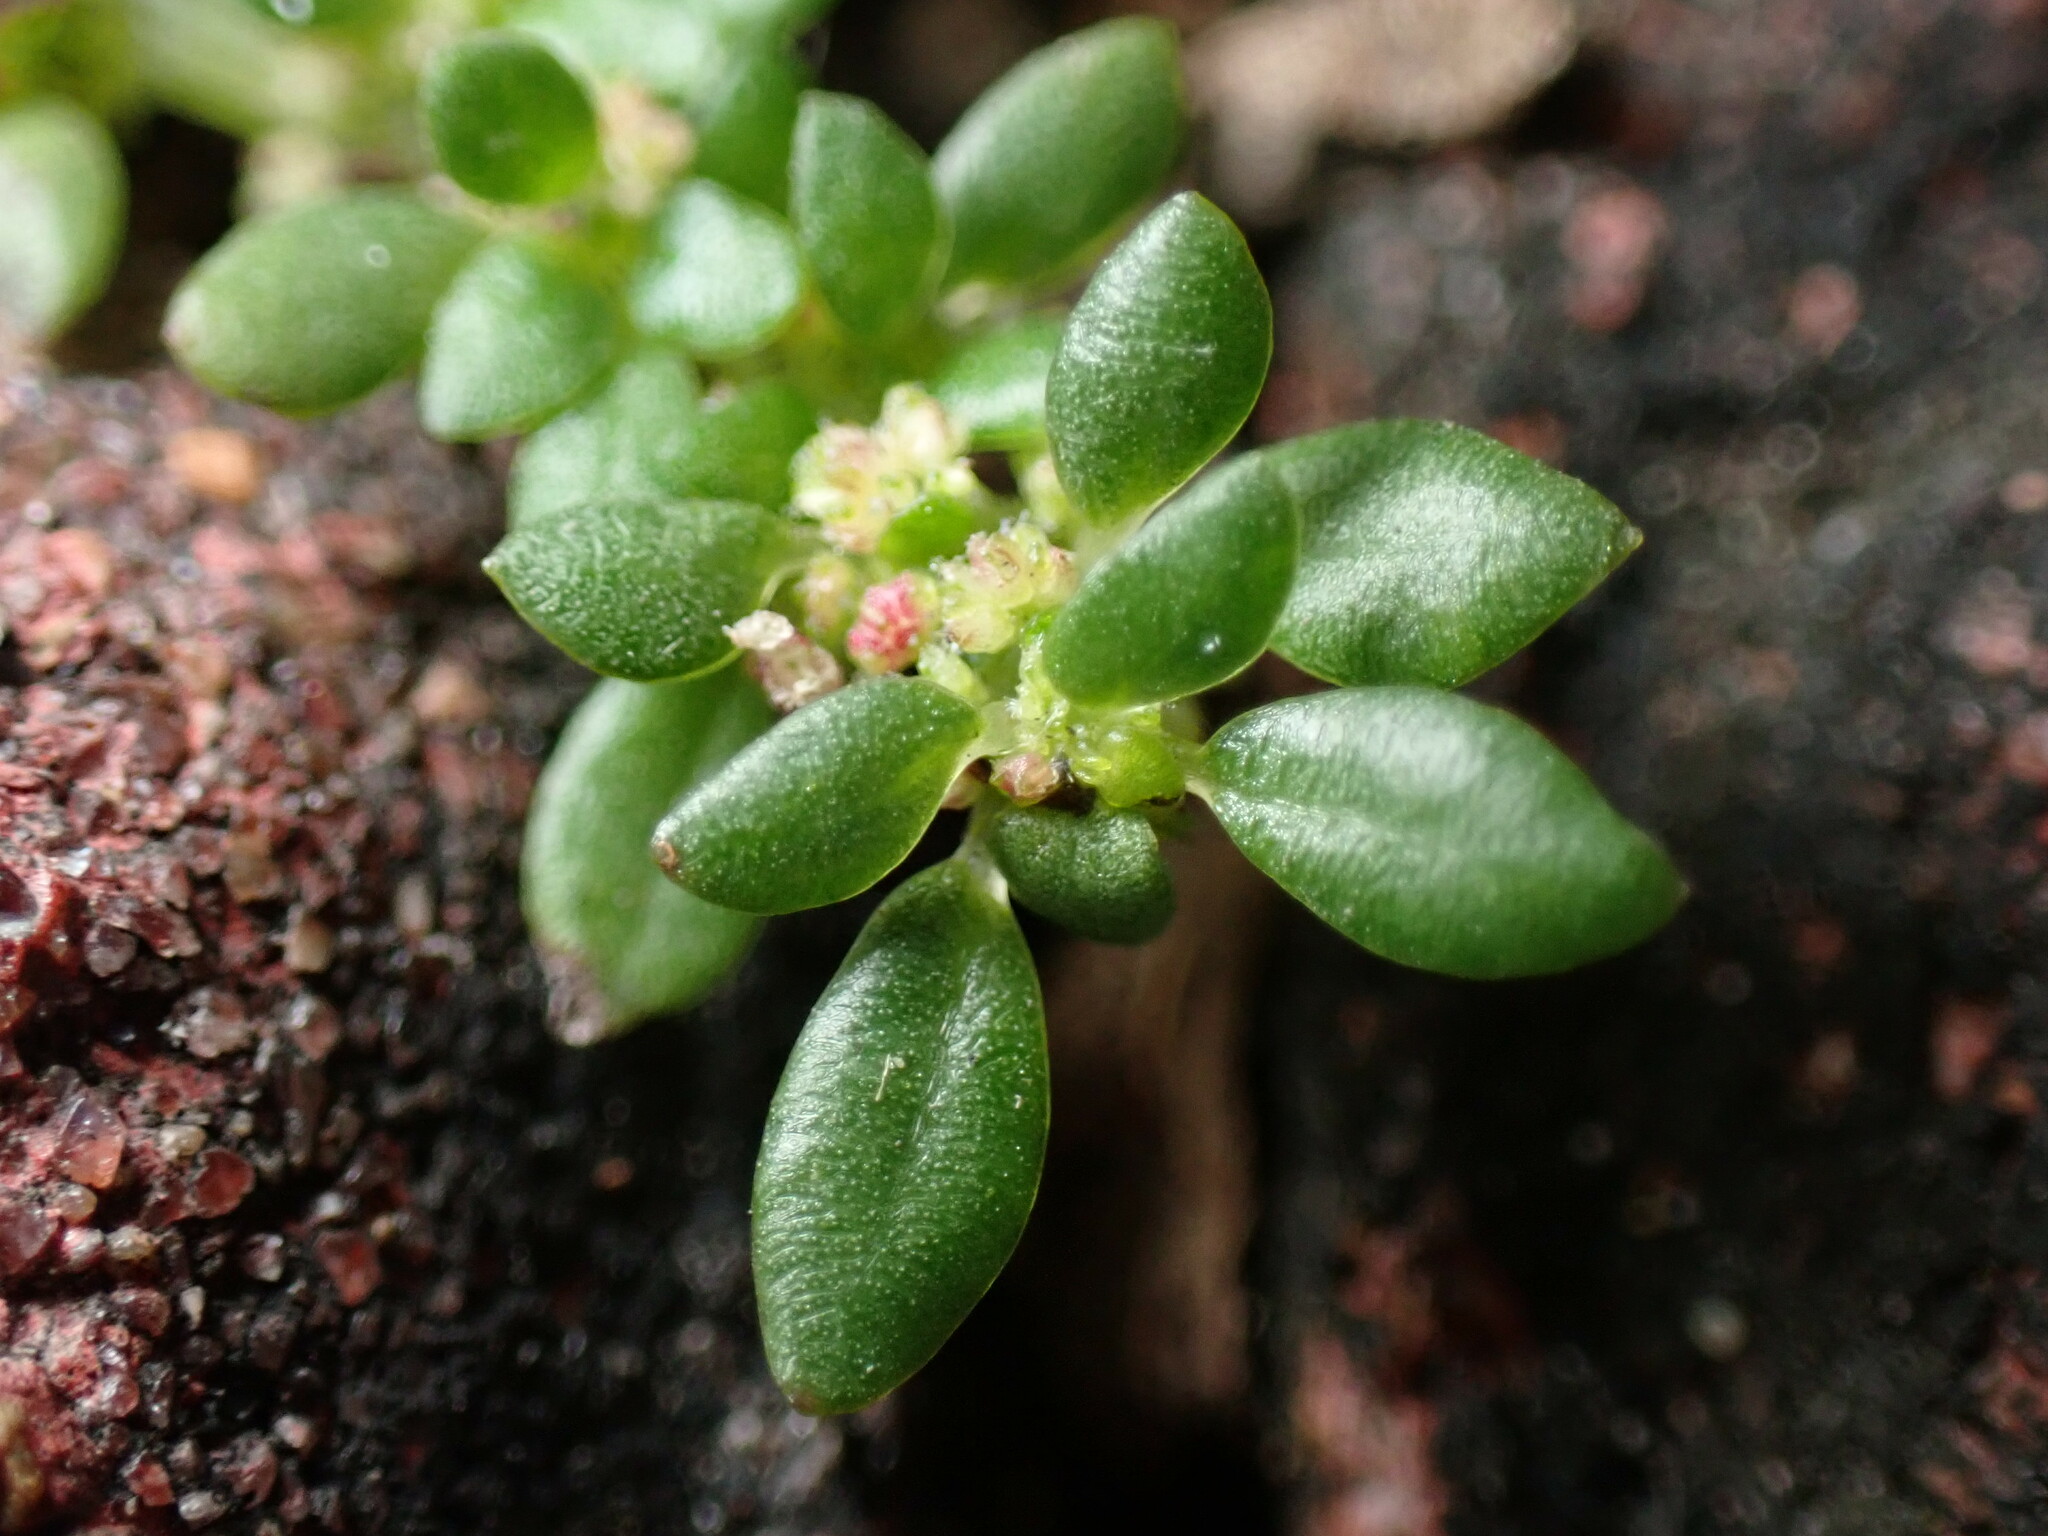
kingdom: Plantae
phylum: Tracheophyta
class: Magnoliopsida
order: Rosales
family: Urticaceae
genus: Pilea
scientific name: Pilea microphylla
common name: Artillery-plant
